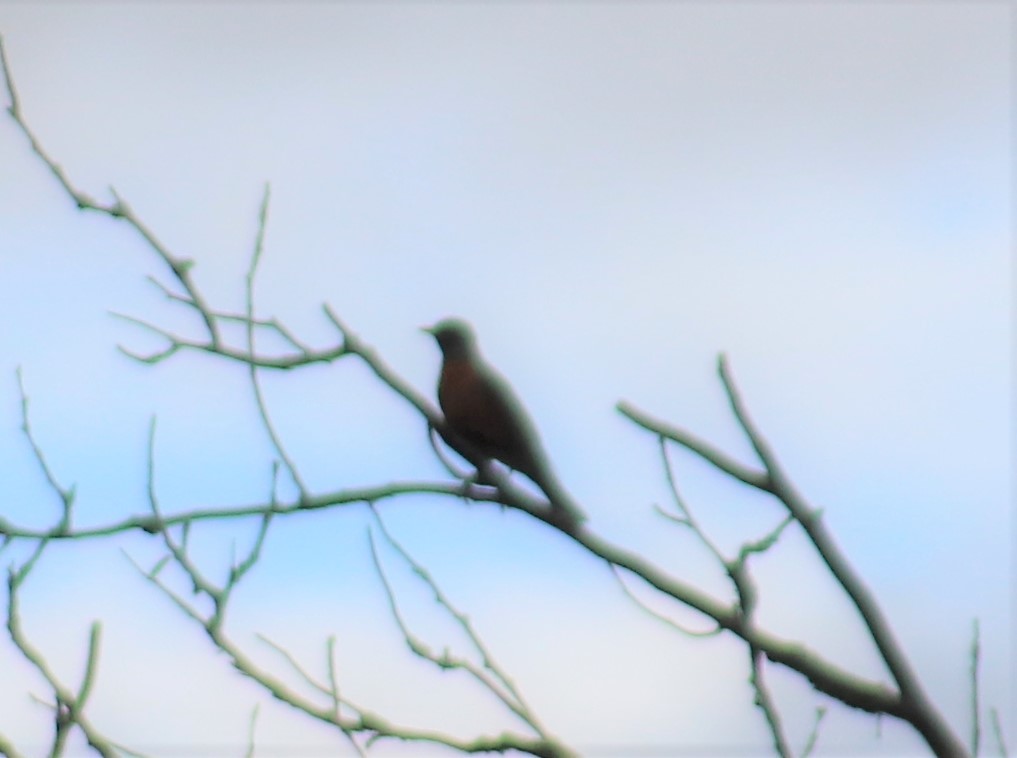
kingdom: Animalia
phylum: Chordata
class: Aves
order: Passeriformes
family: Turdidae
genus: Turdus
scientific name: Turdus migratorius
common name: American robin
